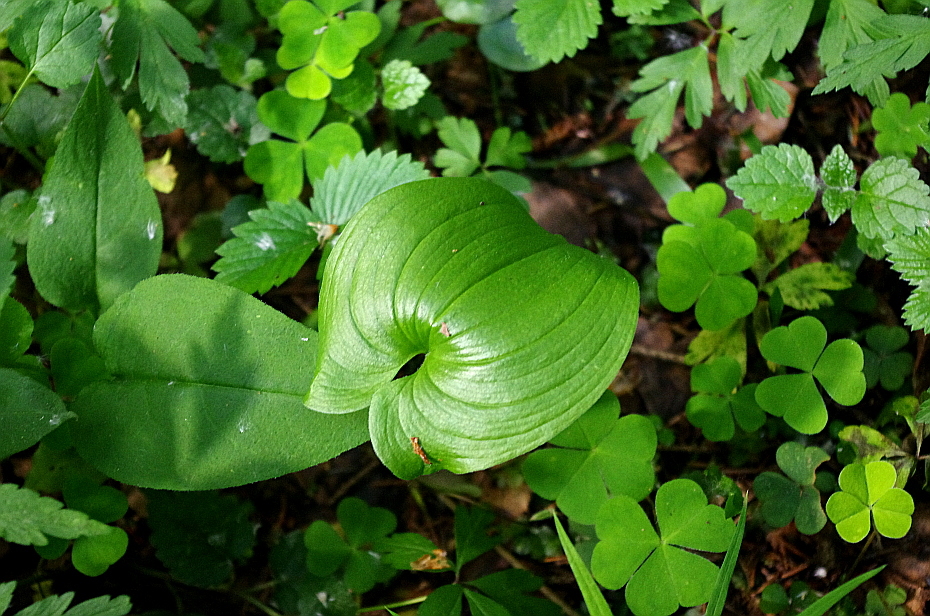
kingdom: Plantae
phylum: Tracheophyta
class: Liliopsida
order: Asparagales
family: Asparagaceae
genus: Maianthemum
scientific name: Maianthemum bifolium
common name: May lily
